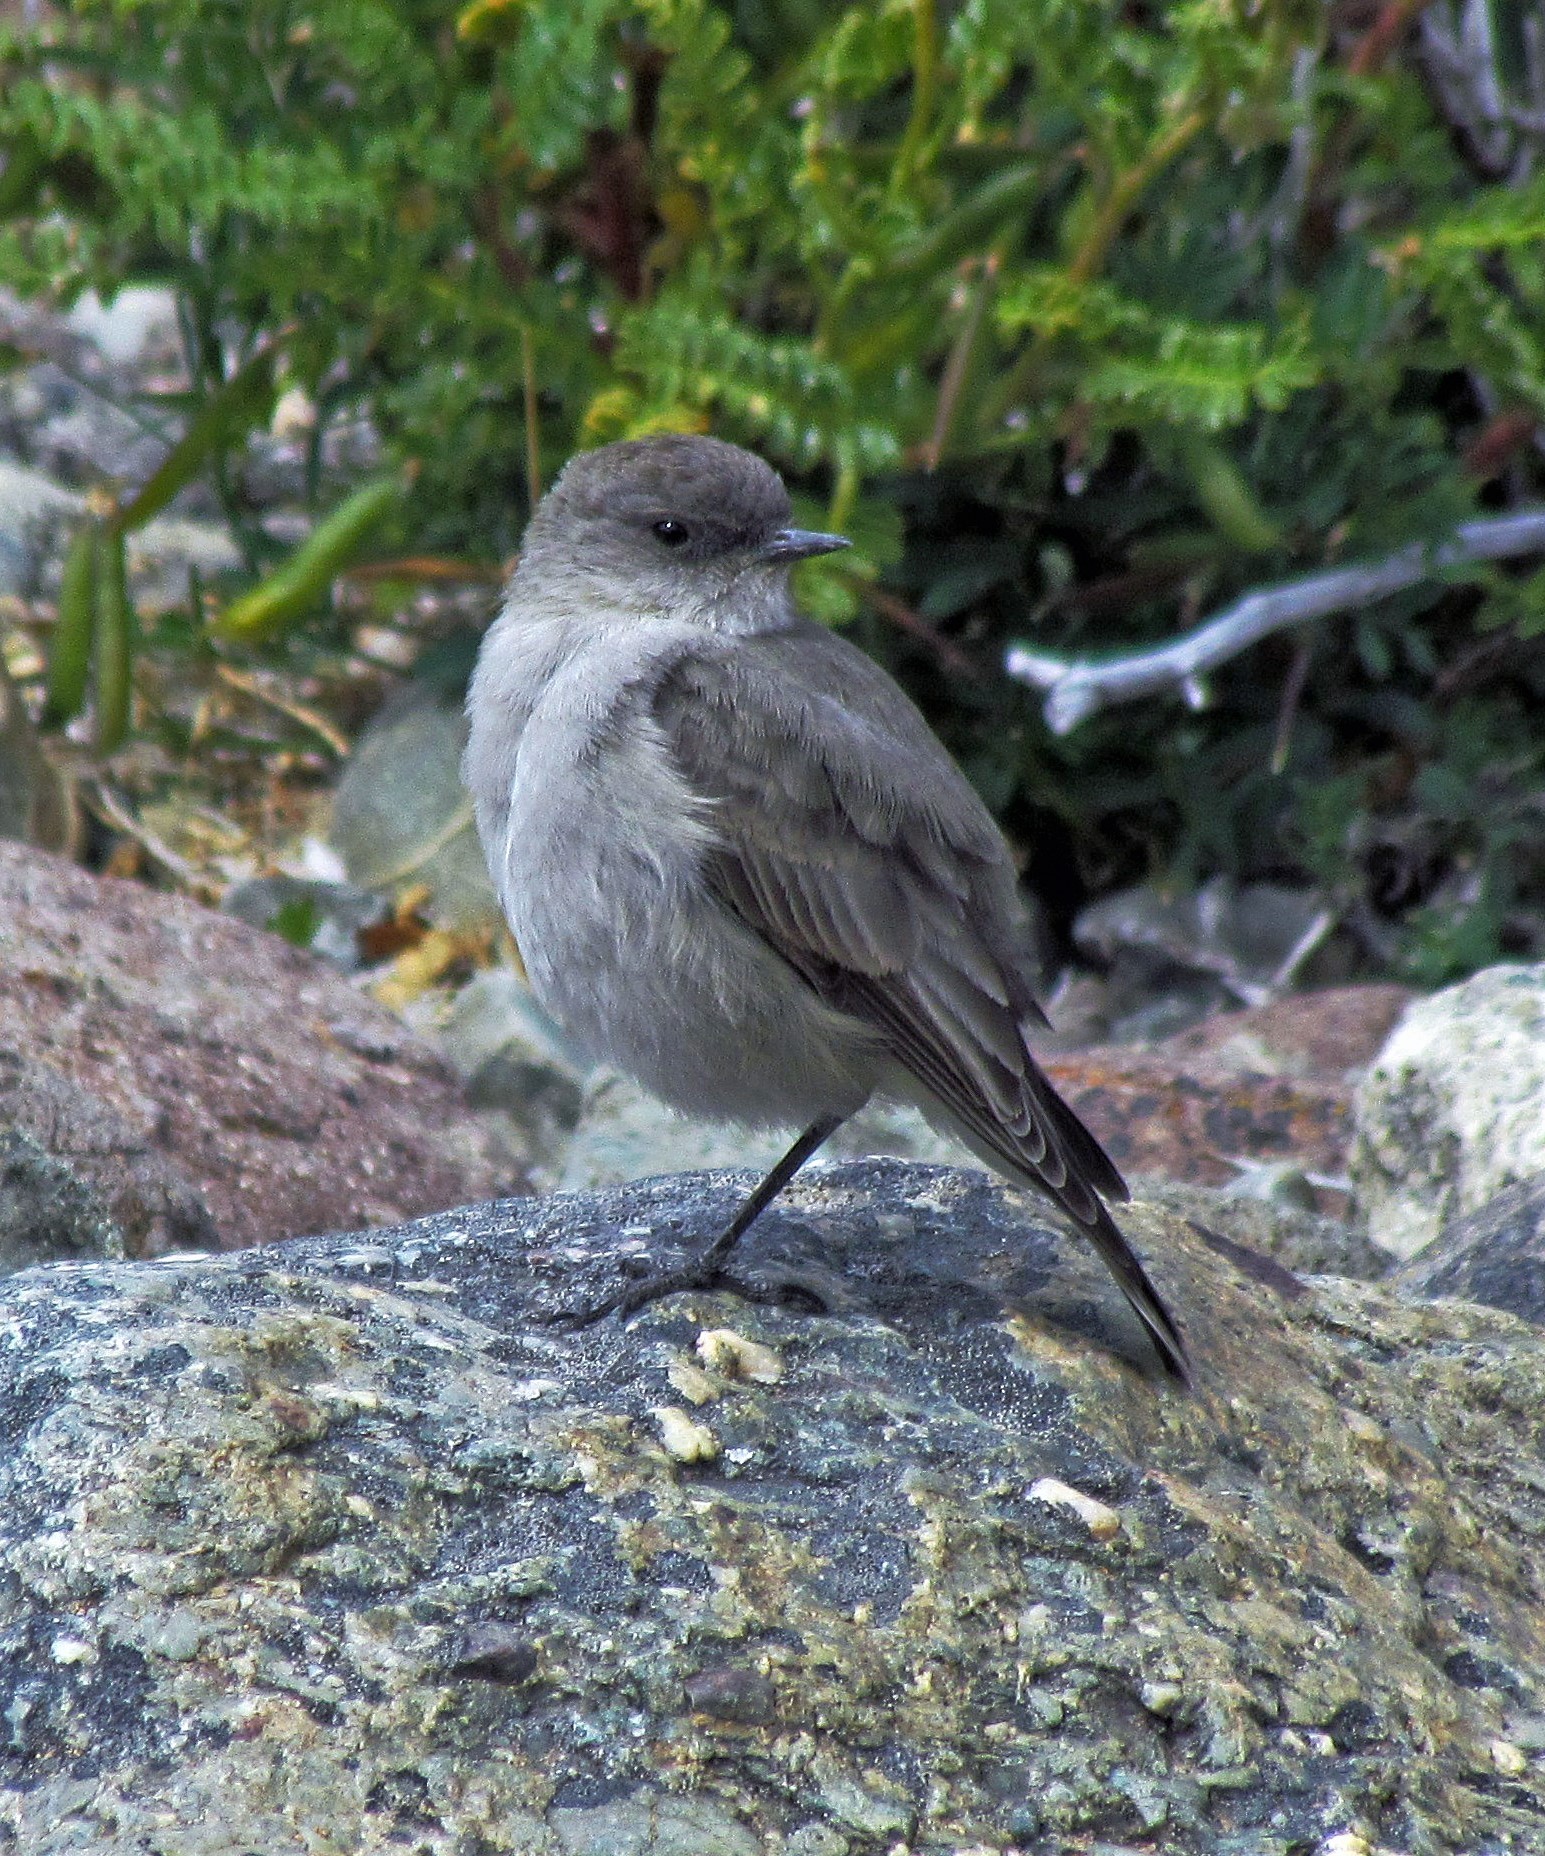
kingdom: Animalia
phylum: Chordata
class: Aves
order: Passeriformes
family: Tyrannidae
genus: Muscisaxicola
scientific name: Muscisaxicola maclovianus
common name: Dark-faced ground tyrant
